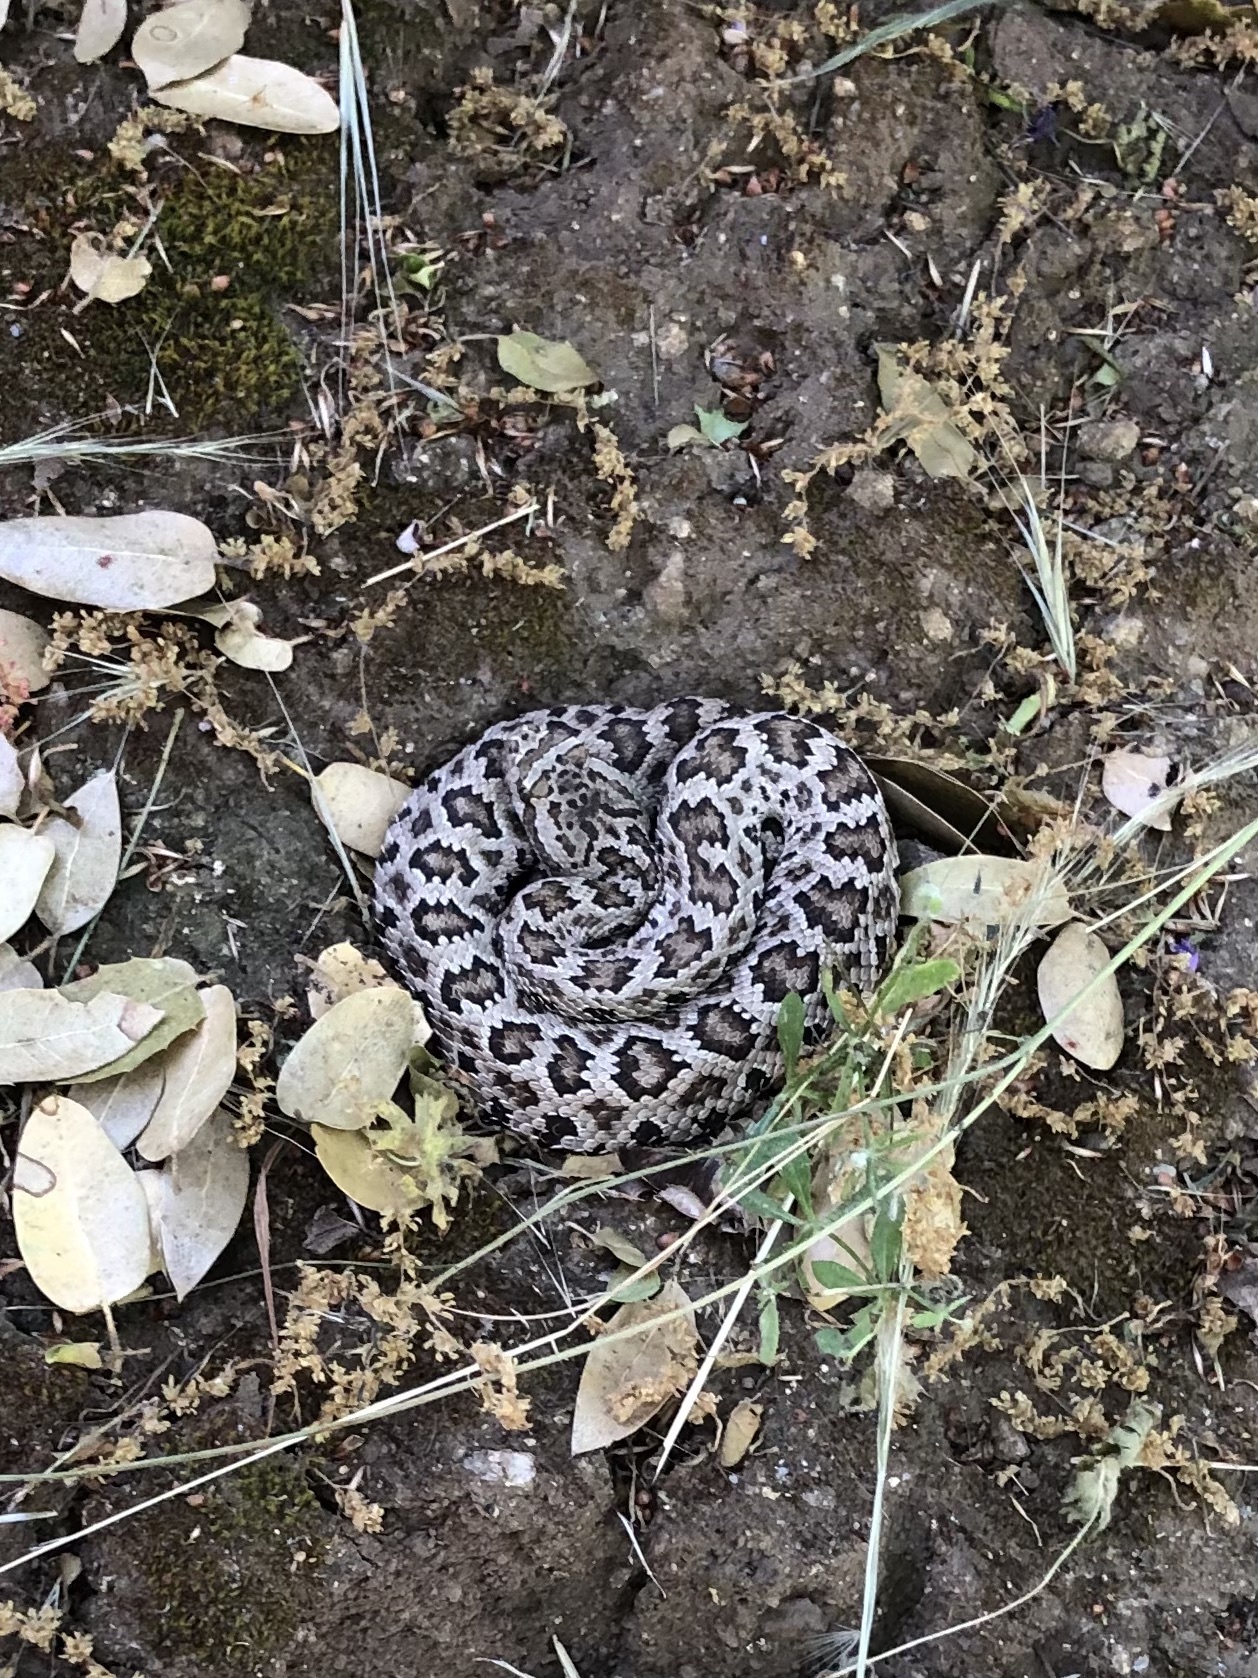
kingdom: Animalia
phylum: Chordata
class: Squamata
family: Viperidae
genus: Crotalus
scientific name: Crotalus oreganus
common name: Abyssus
